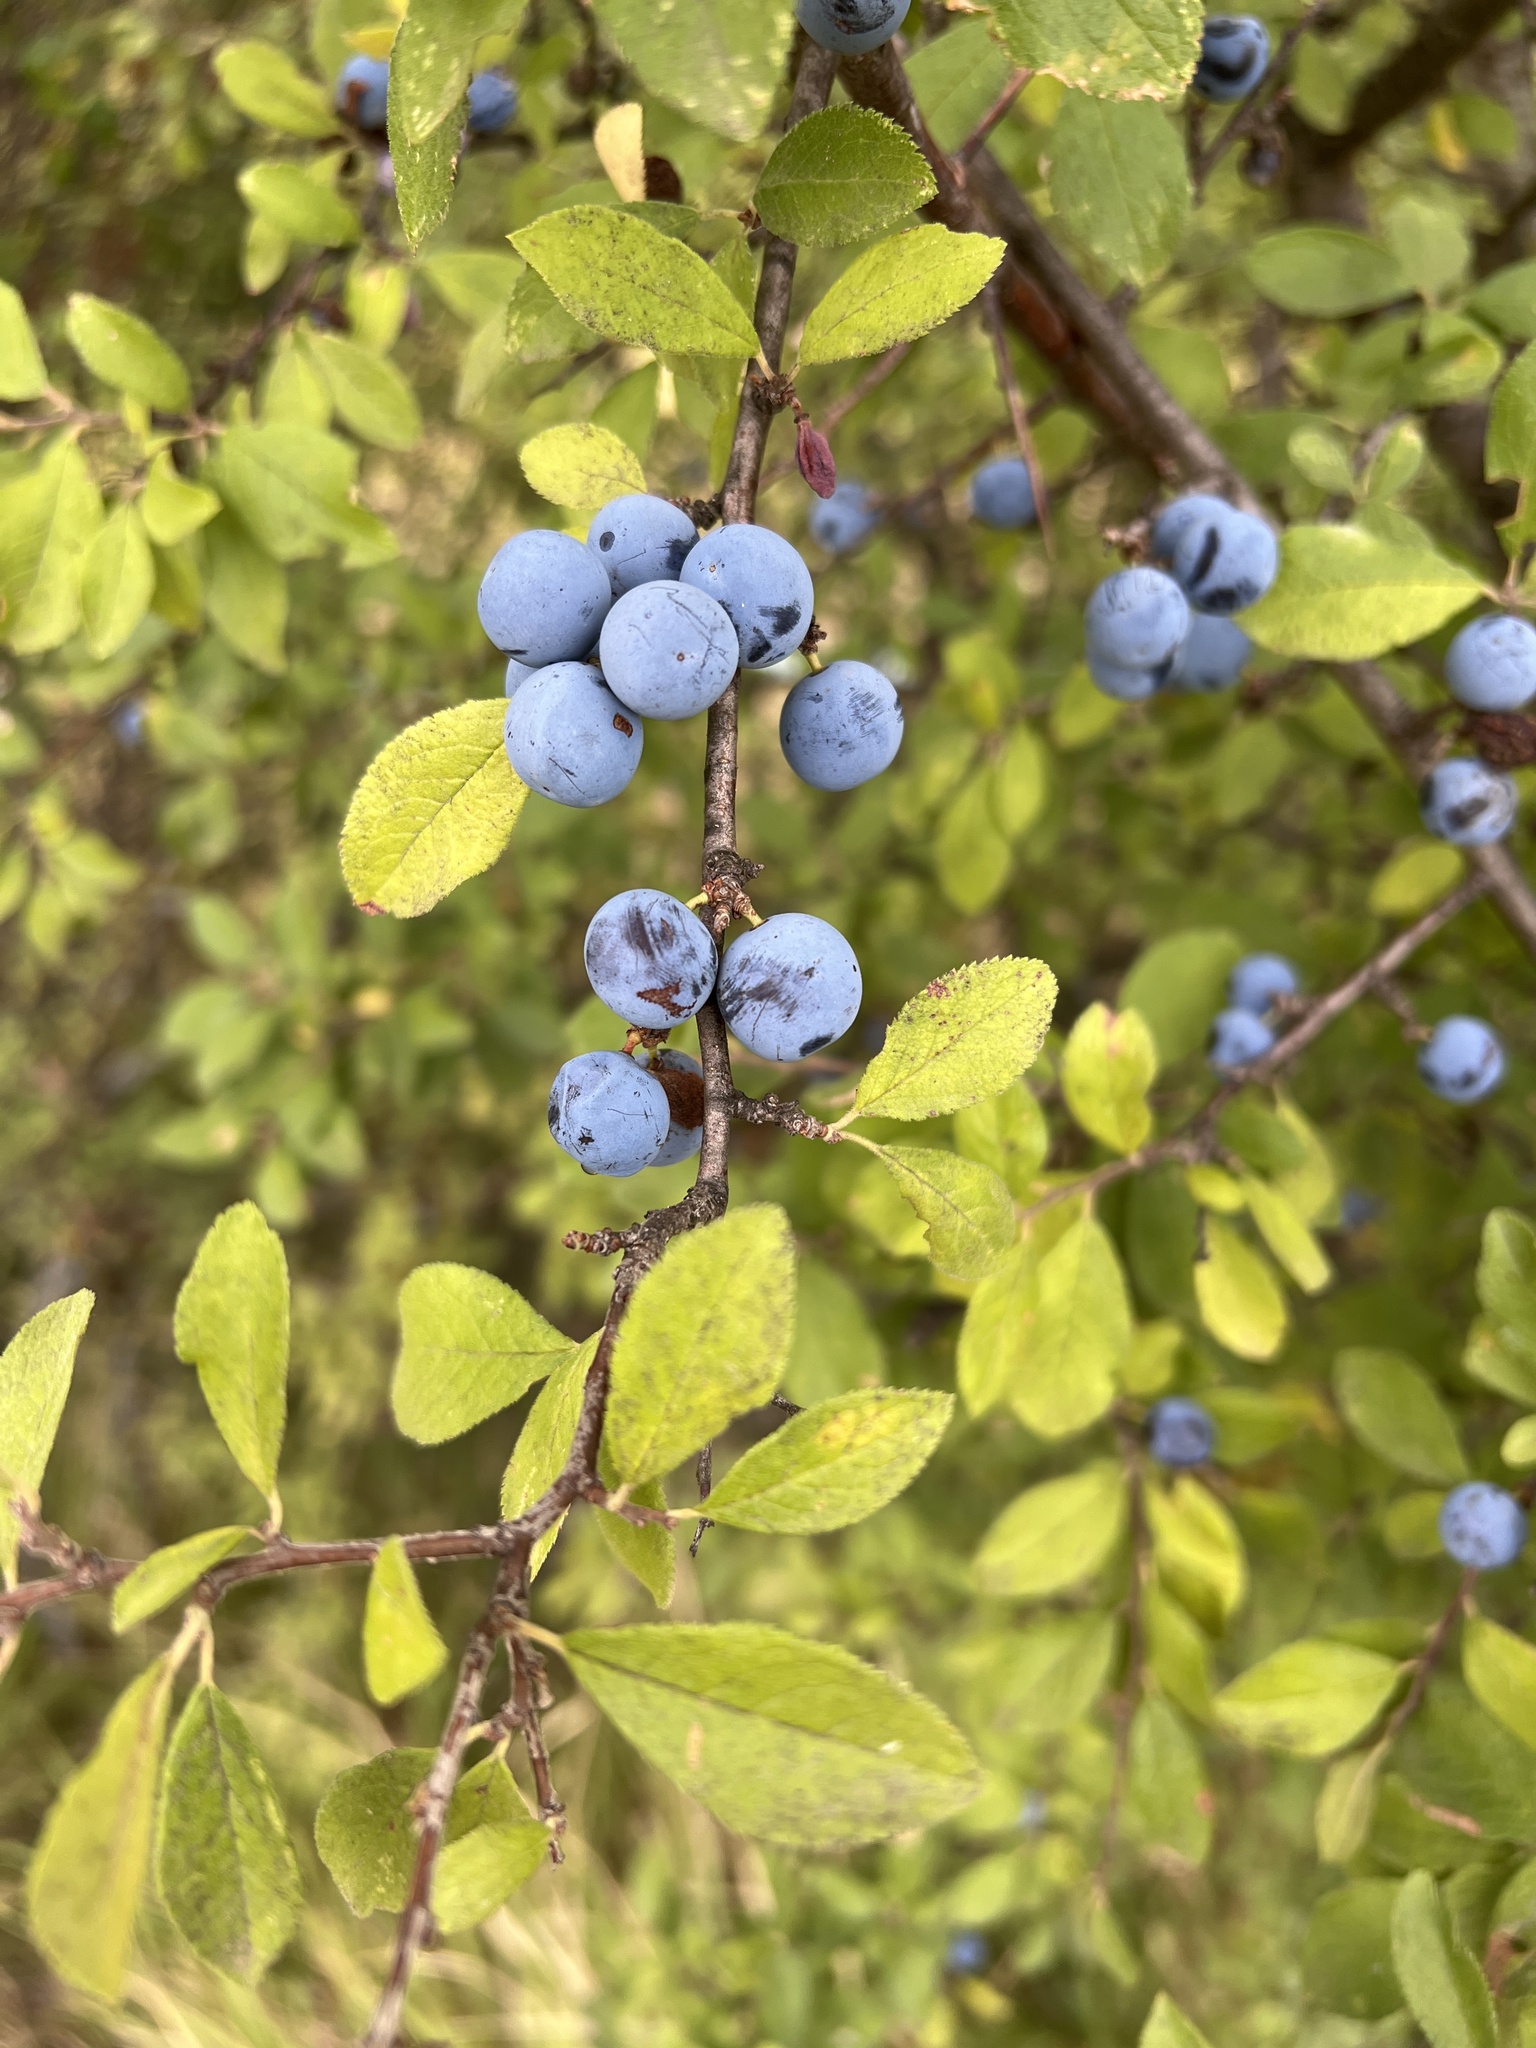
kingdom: Plantae
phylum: Tracheophyta
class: Magnoliopsida
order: Rosales
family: Rosaceae
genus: Prunus
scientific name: Prunus spinosa
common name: Blackthorn
